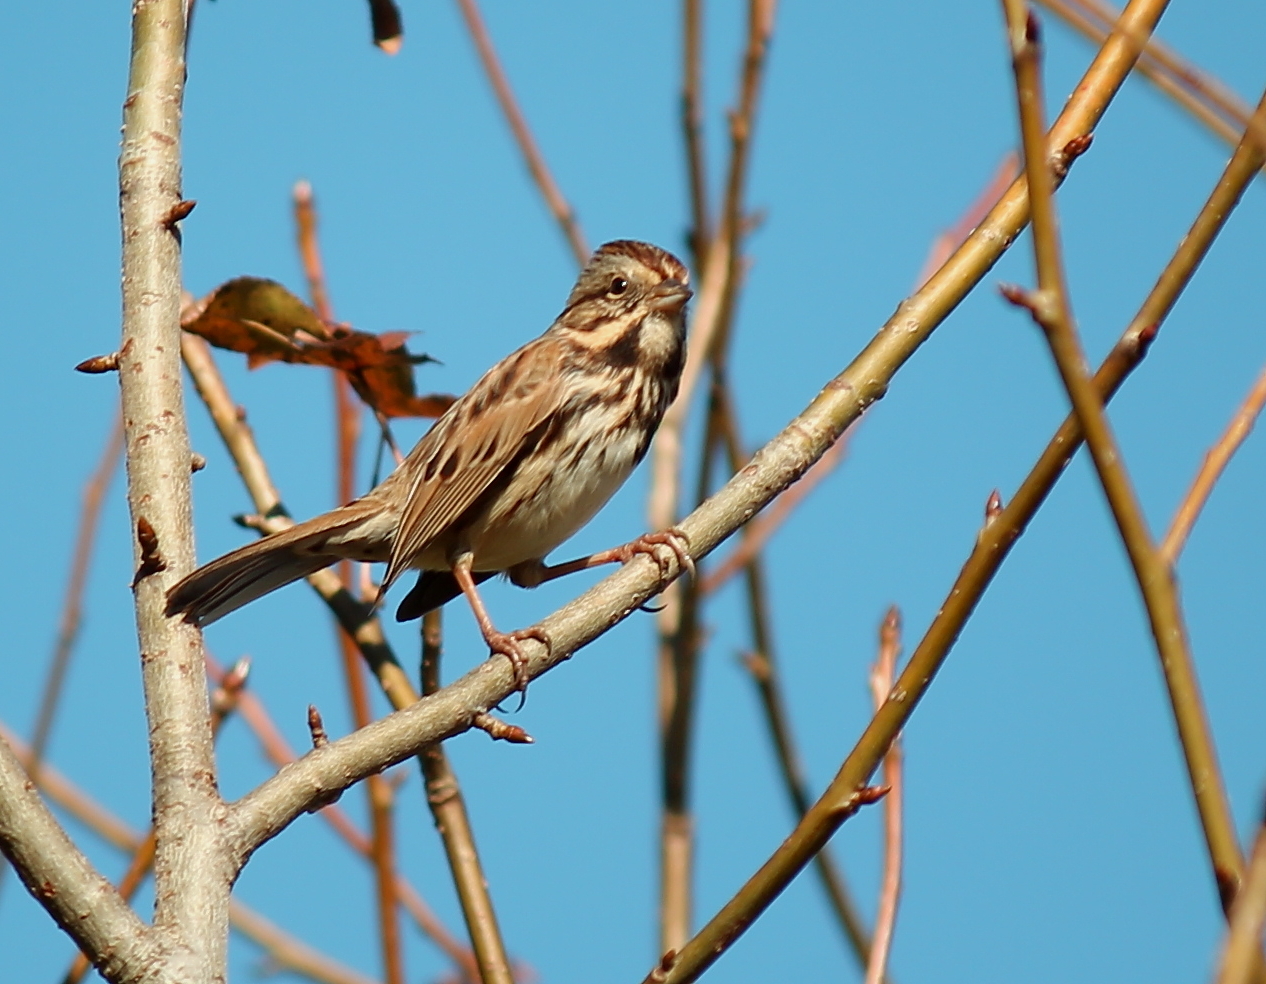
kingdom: Animalia
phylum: Chordata
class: Aves
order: Passeriformes
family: Passerellidae
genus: Melospiza
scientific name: Melospiza melodia
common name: Song sparrow
